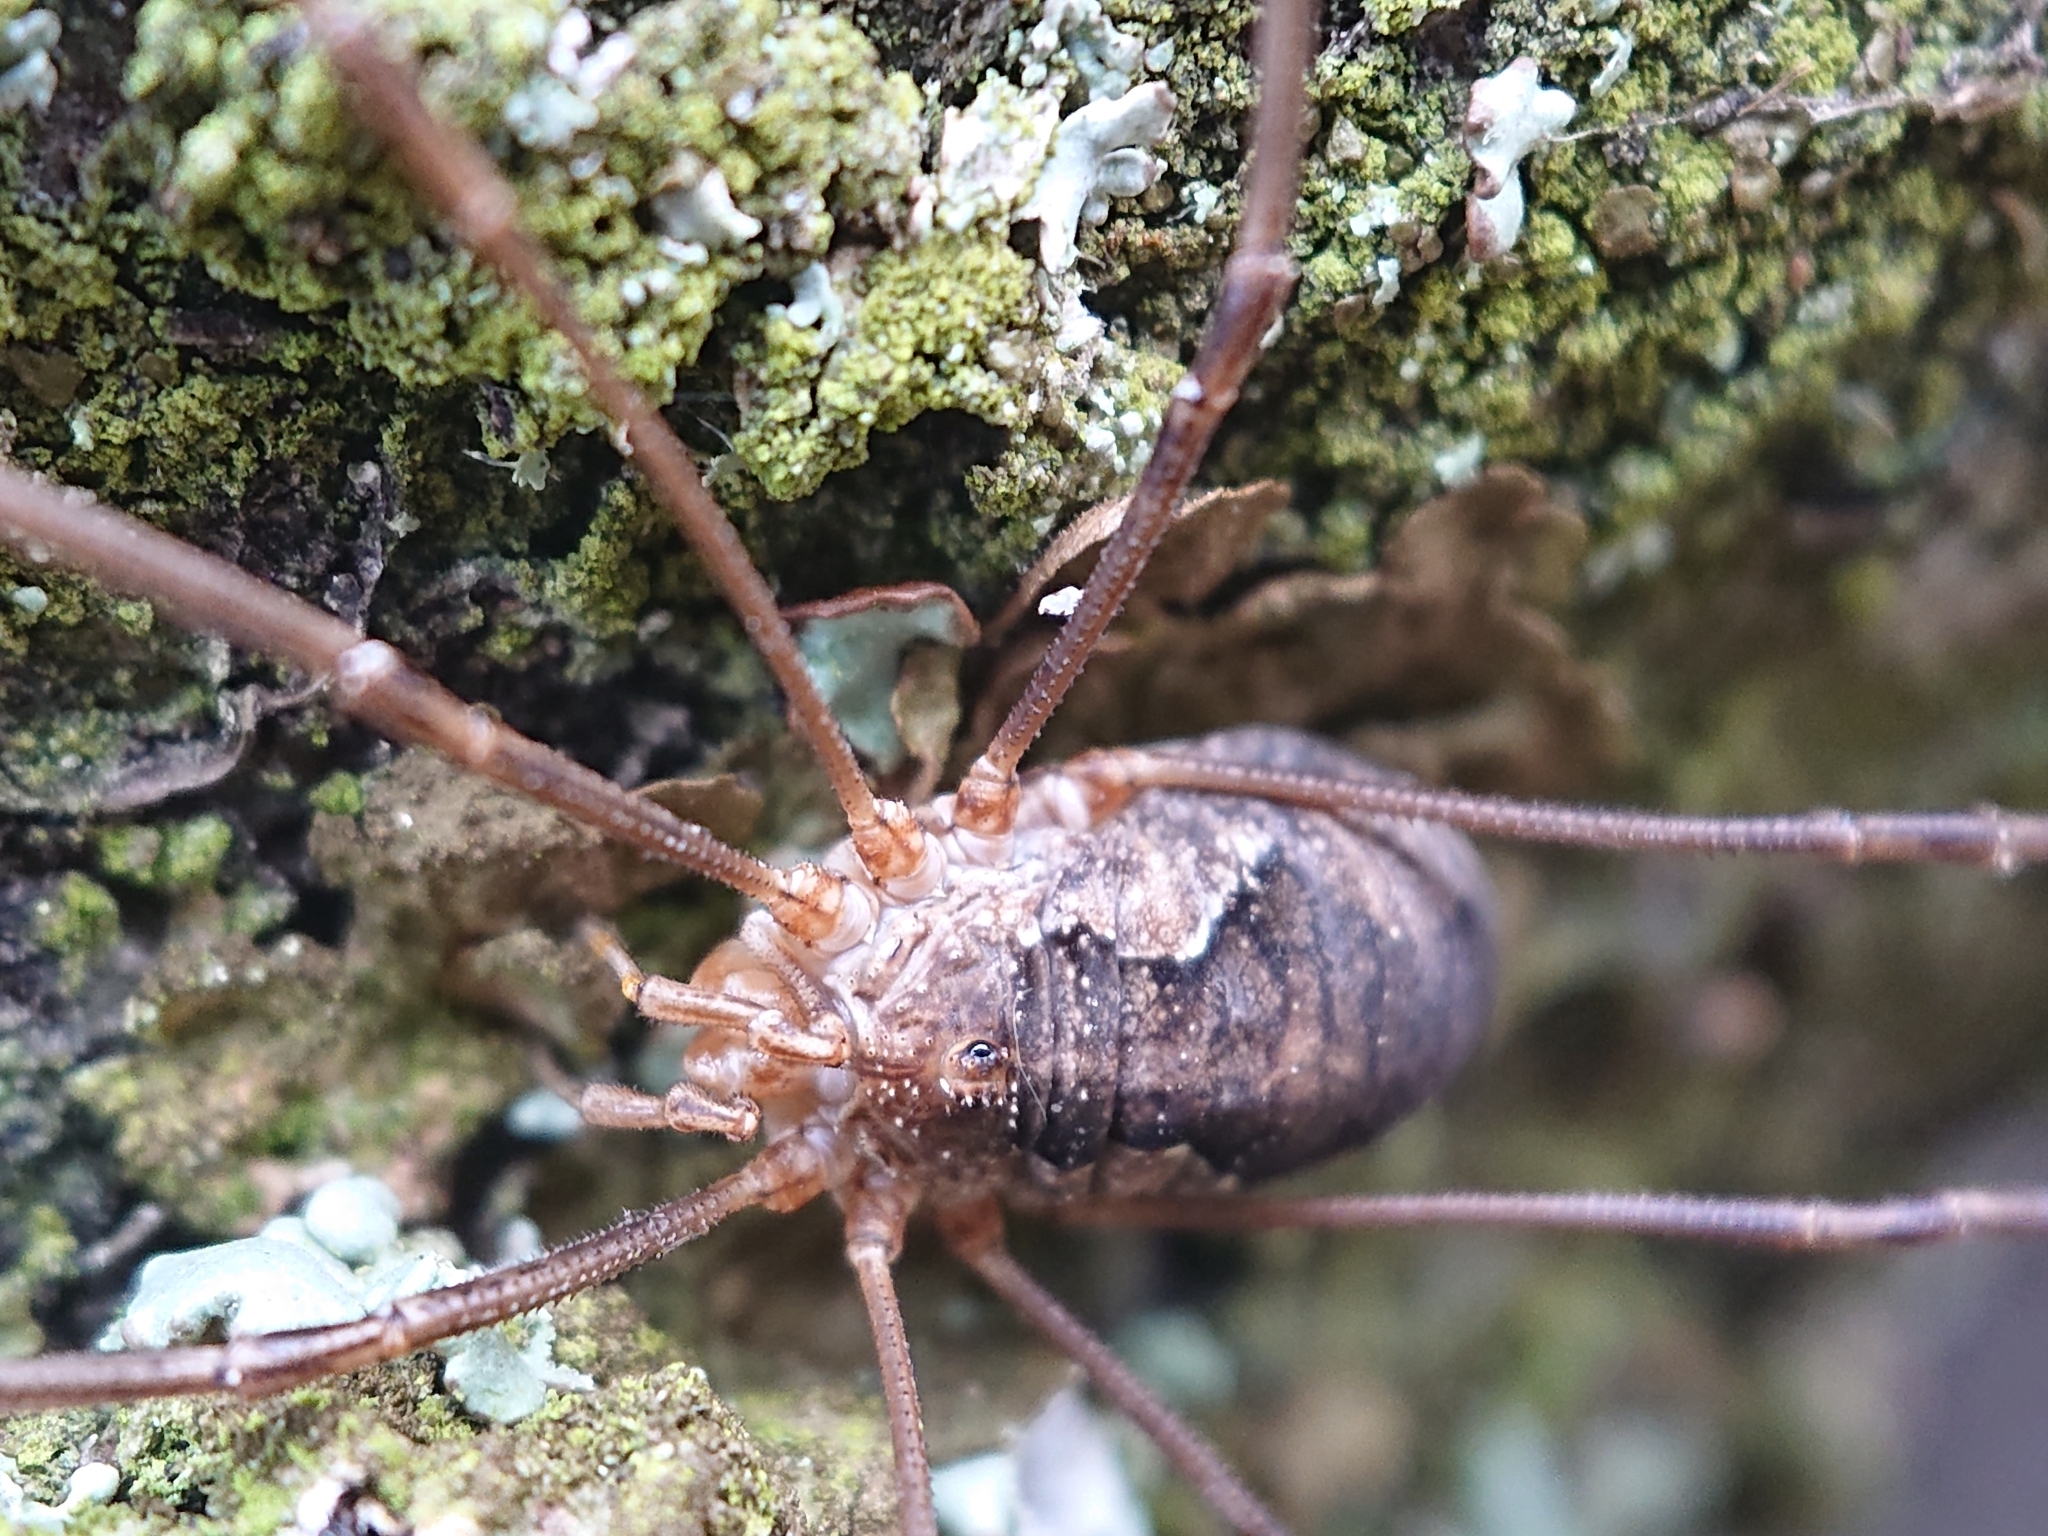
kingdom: Animalia
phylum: Arthropoda
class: Arachnida
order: Opiliones
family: Phalangiidae
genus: Phalangium
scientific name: Phalangium opilio
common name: Daddy longleg
